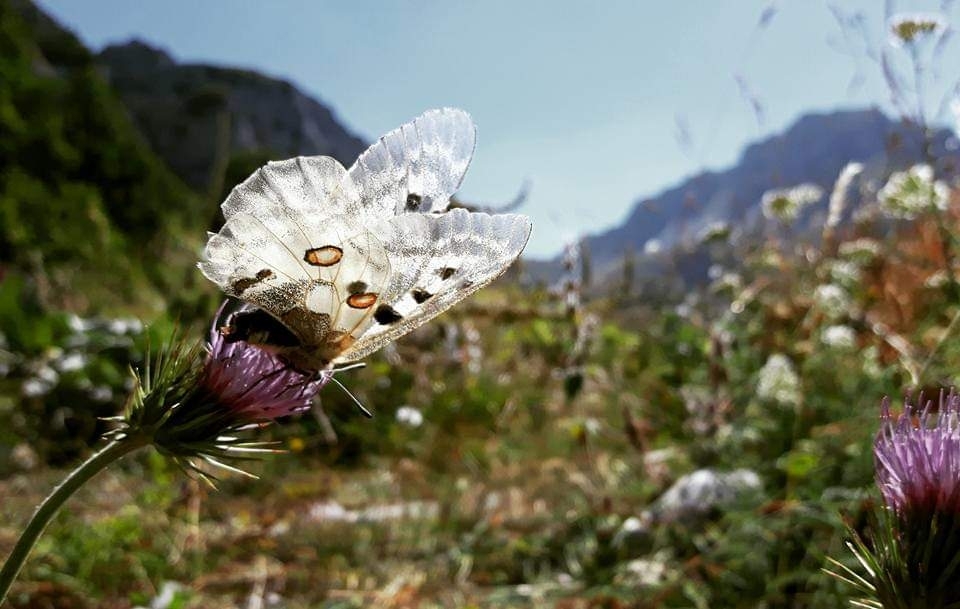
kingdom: Animalia
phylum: Arthropoda
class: Insecta
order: Lepidoptera
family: Papilionidae
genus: Parnassius
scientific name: Parnassius apollo
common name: Apollo
